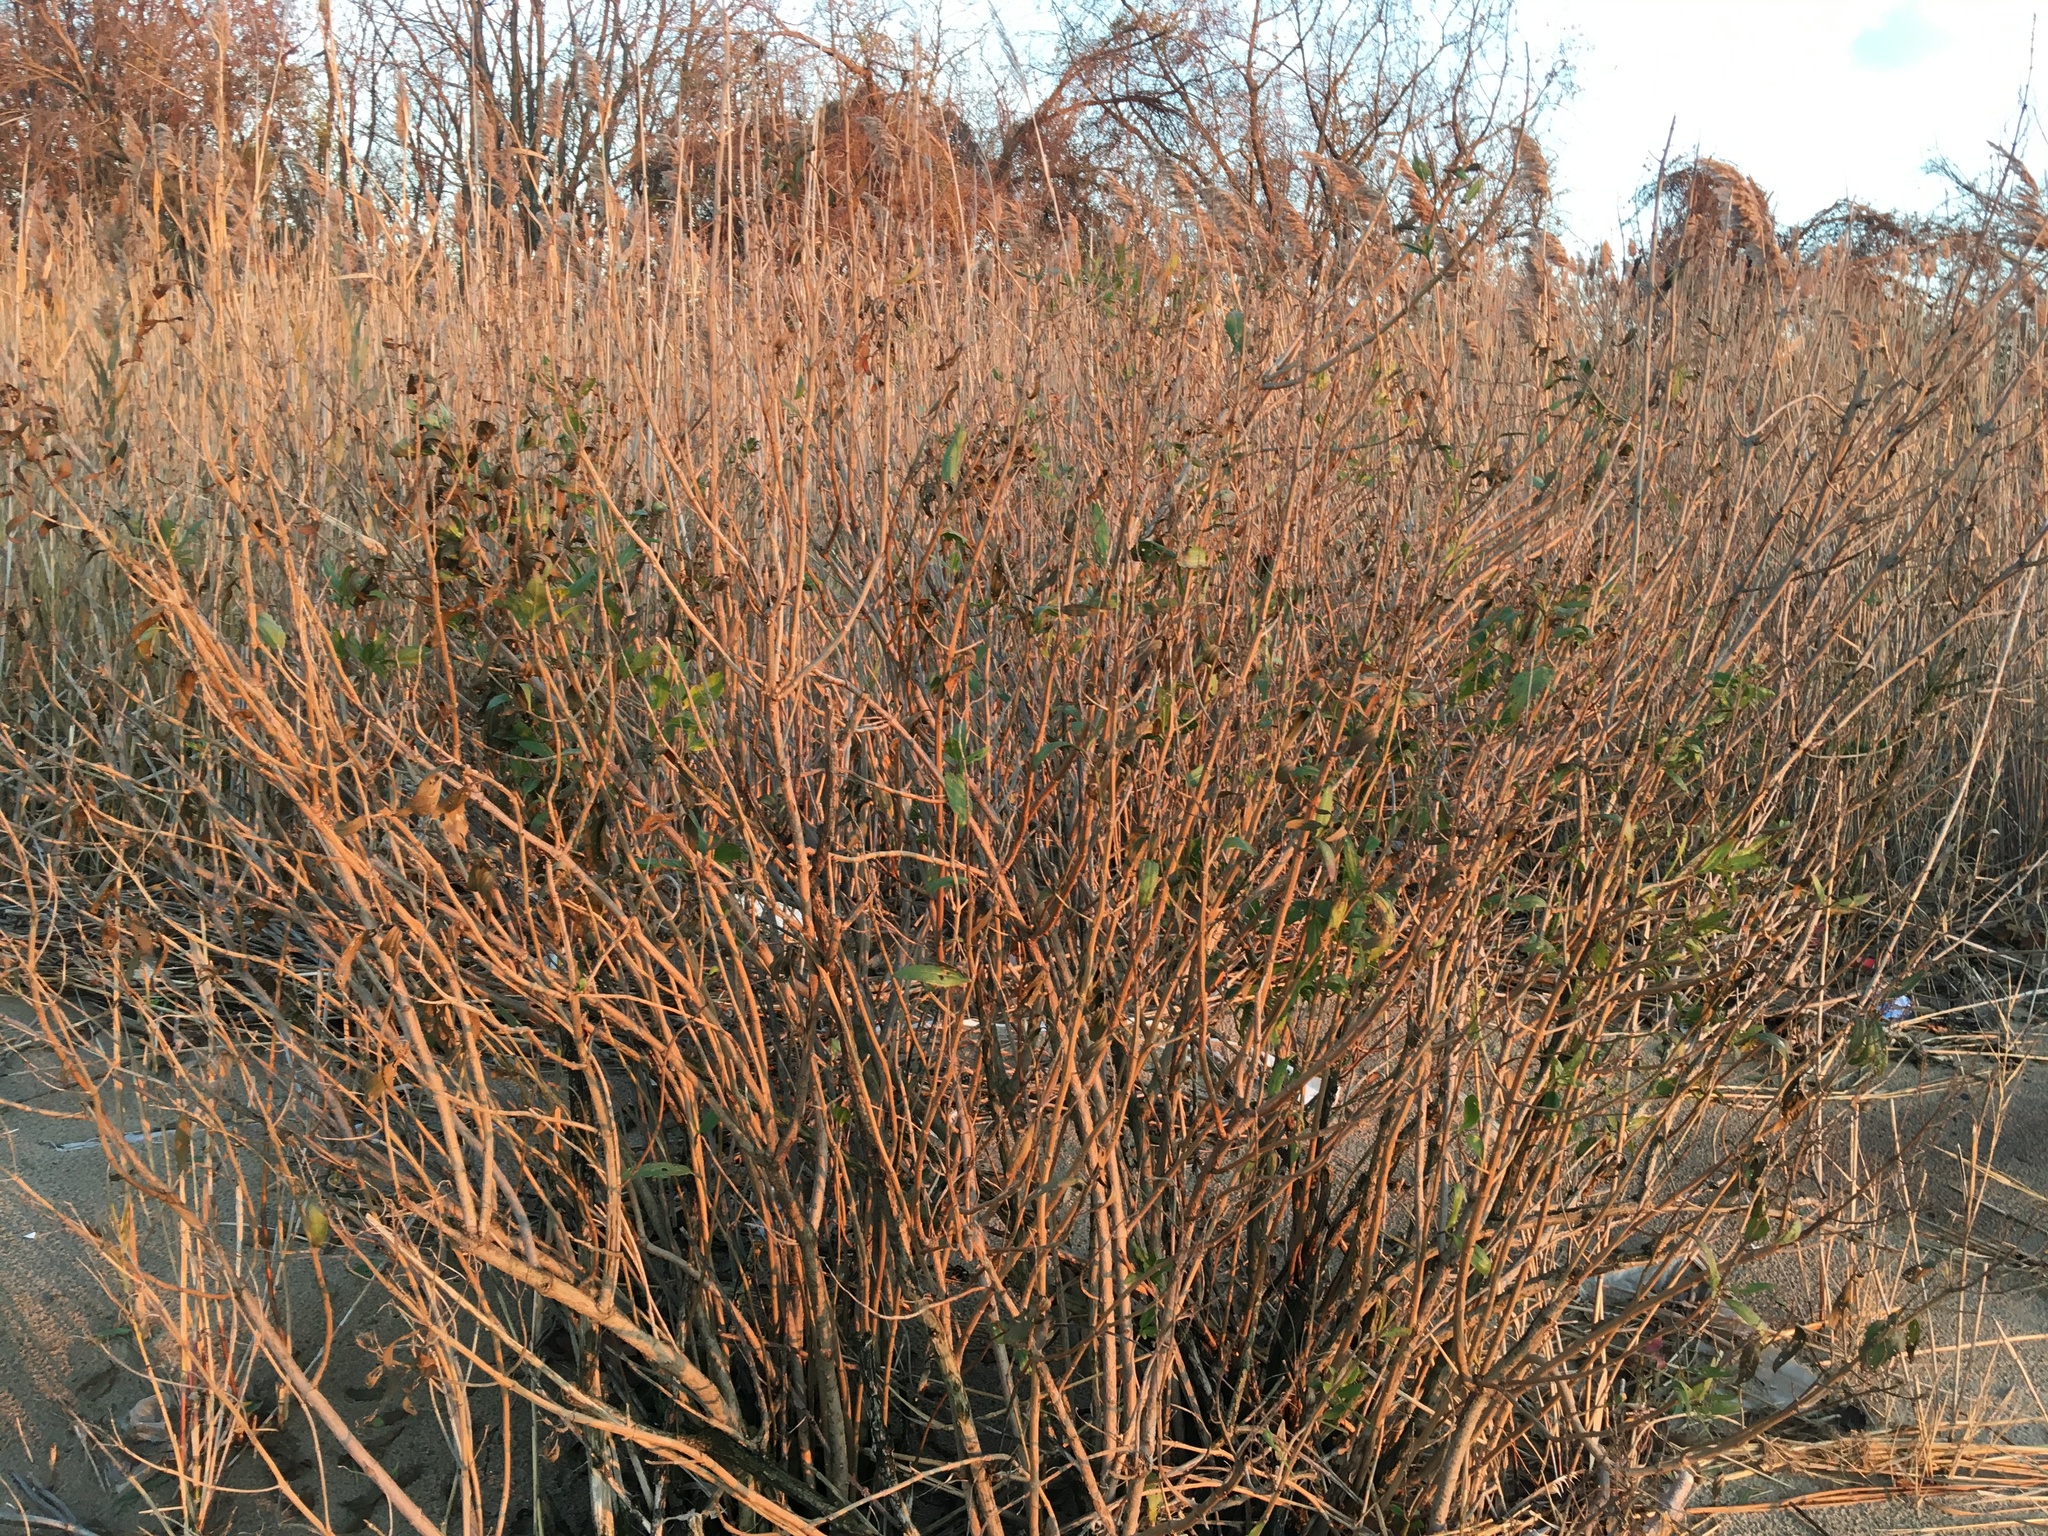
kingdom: Plantae
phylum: Tracheophyta
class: Magnoliopsida
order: Asterales
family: Asteraceae
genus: Iva
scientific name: Iva frutescens
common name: Big-leaved marsh-elder
